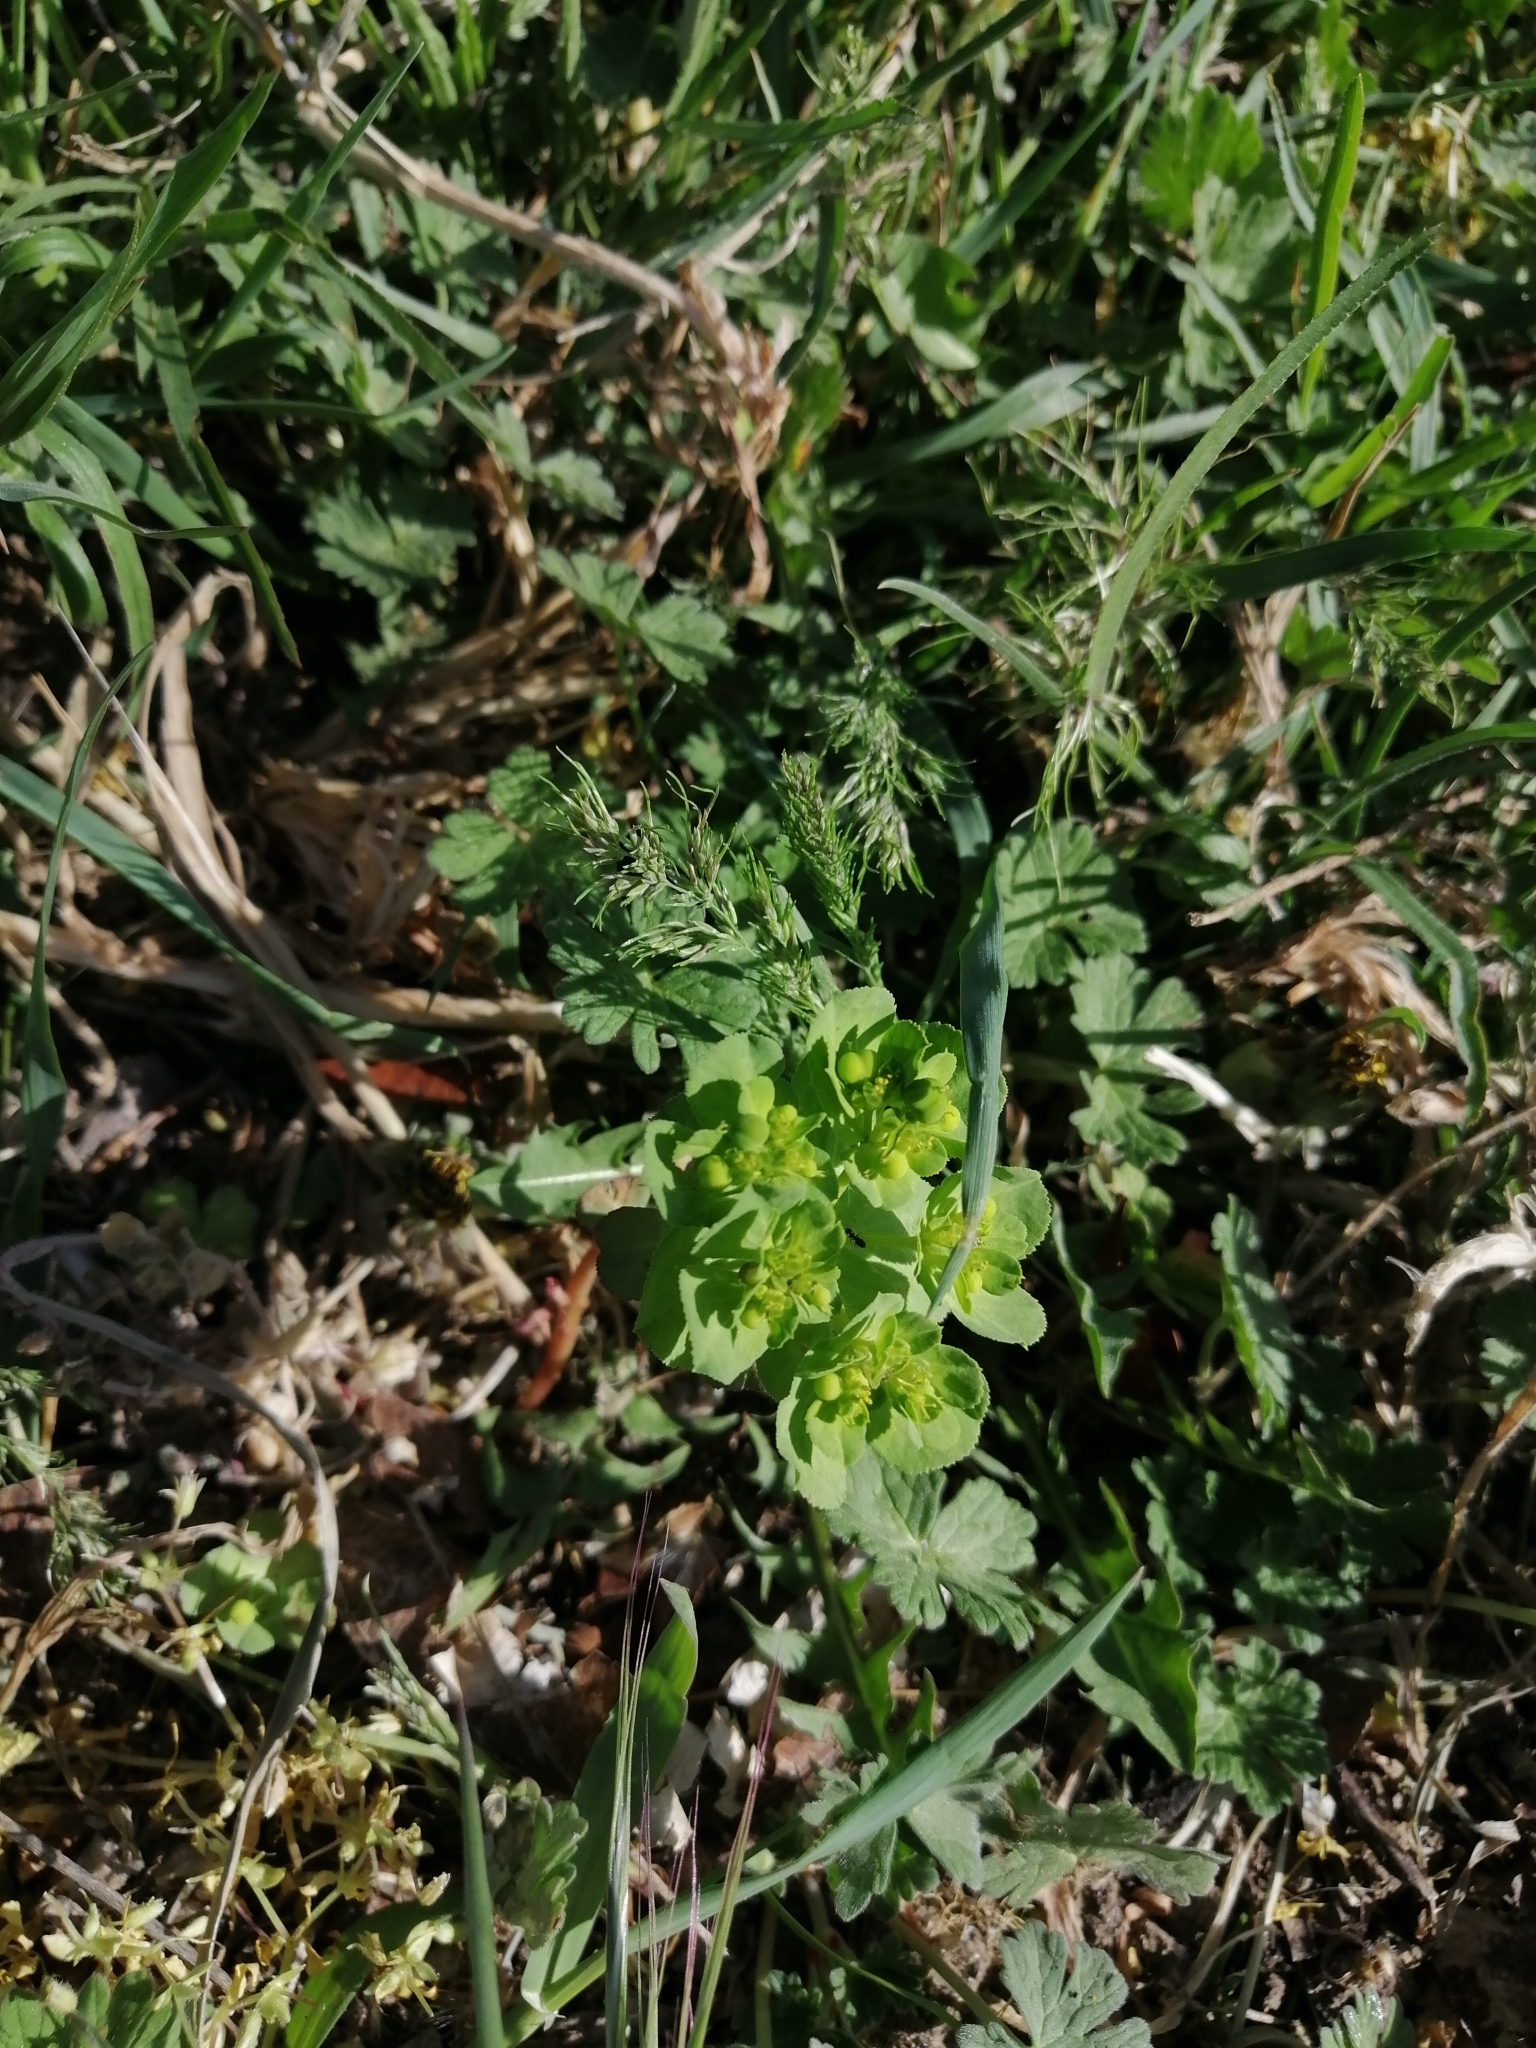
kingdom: Plantae
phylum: Tracheophyta
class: Magnoliopsida
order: Malpighiales
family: Euphorbiaceae
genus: Euphorbia
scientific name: Euphorbia helioscopia
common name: Sun spurge
